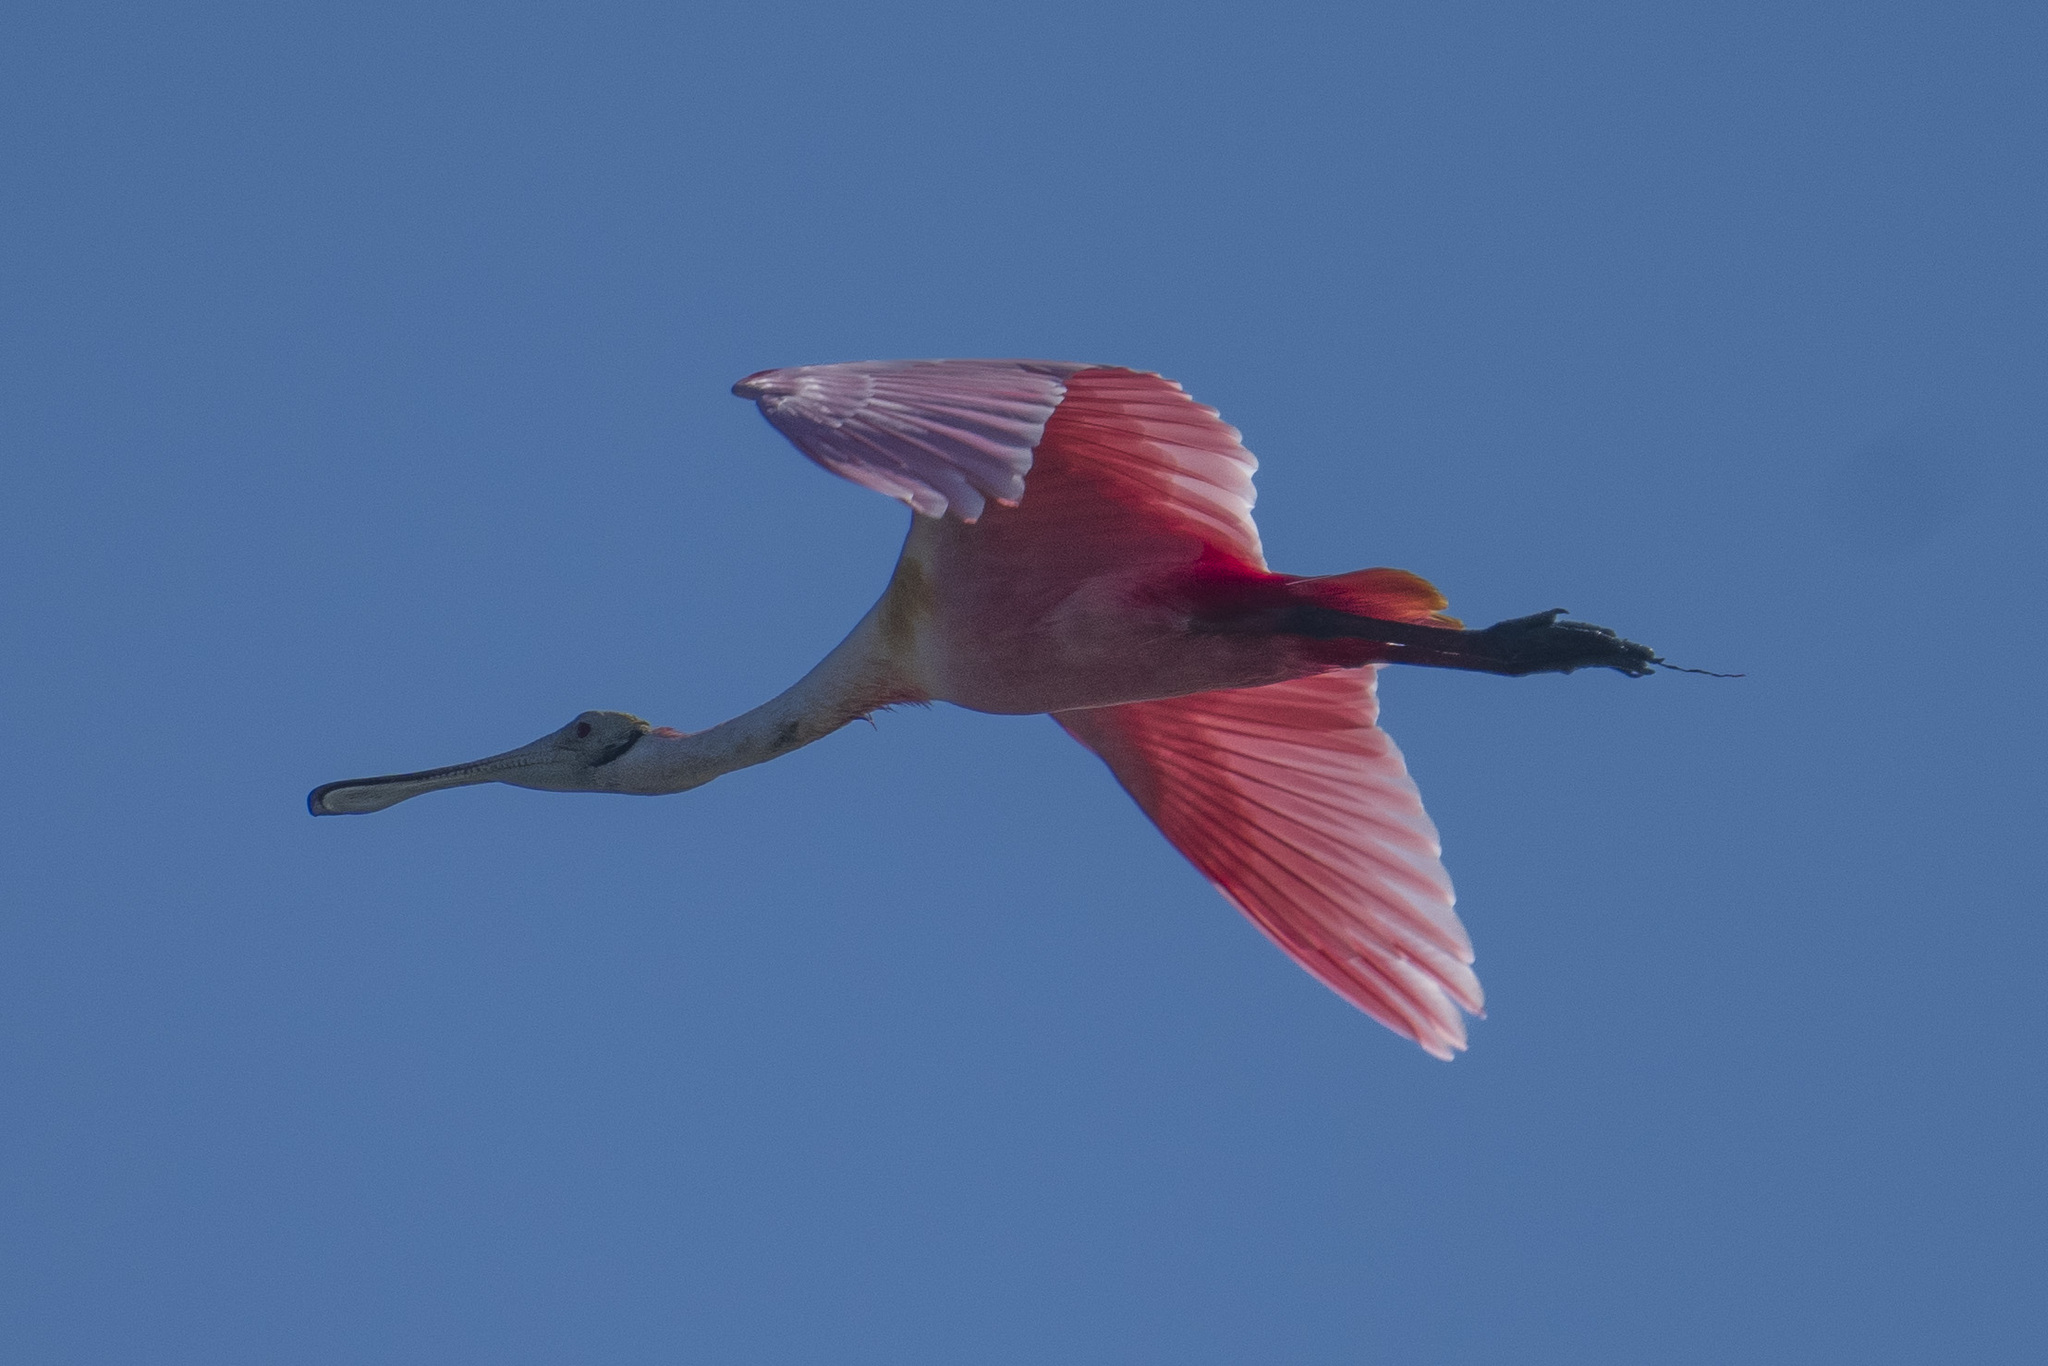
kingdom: Animalia
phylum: Chordata
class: Aves
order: Pelecaniformes
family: Threskiornithidae
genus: Platalea
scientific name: Platalea ajaja
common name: Roseate spoonbill
